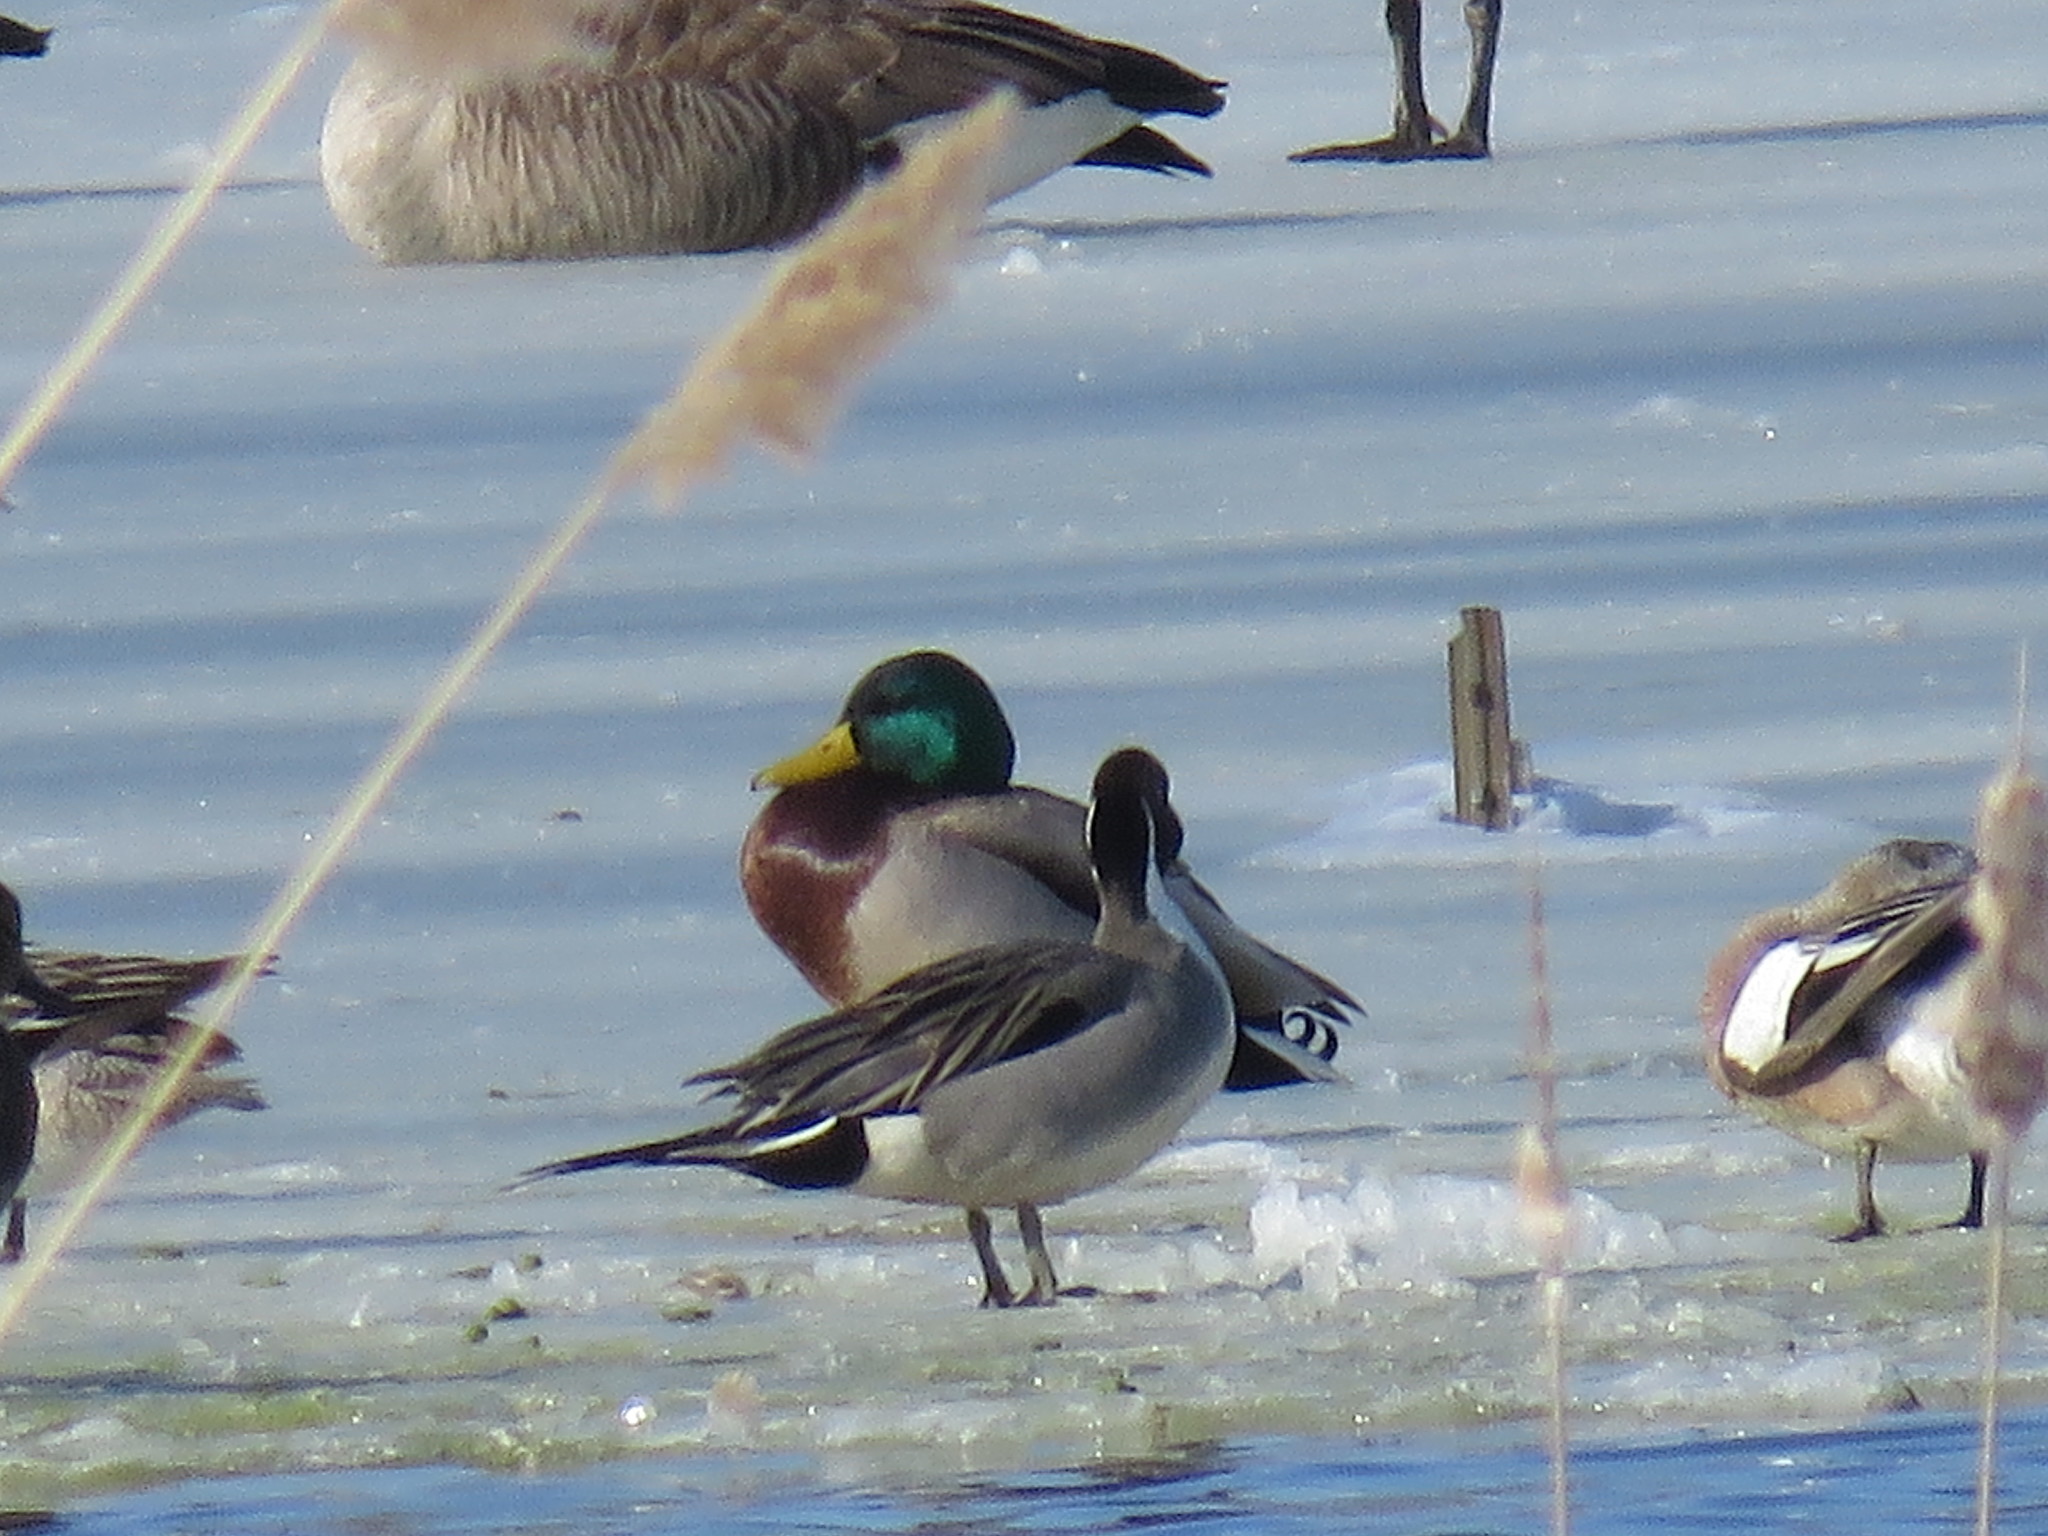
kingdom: Animalia
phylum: Chordata
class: Aves
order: Anseriformes
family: Anatidae
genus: Anas
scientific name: Anas acuta
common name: Northern pintail
